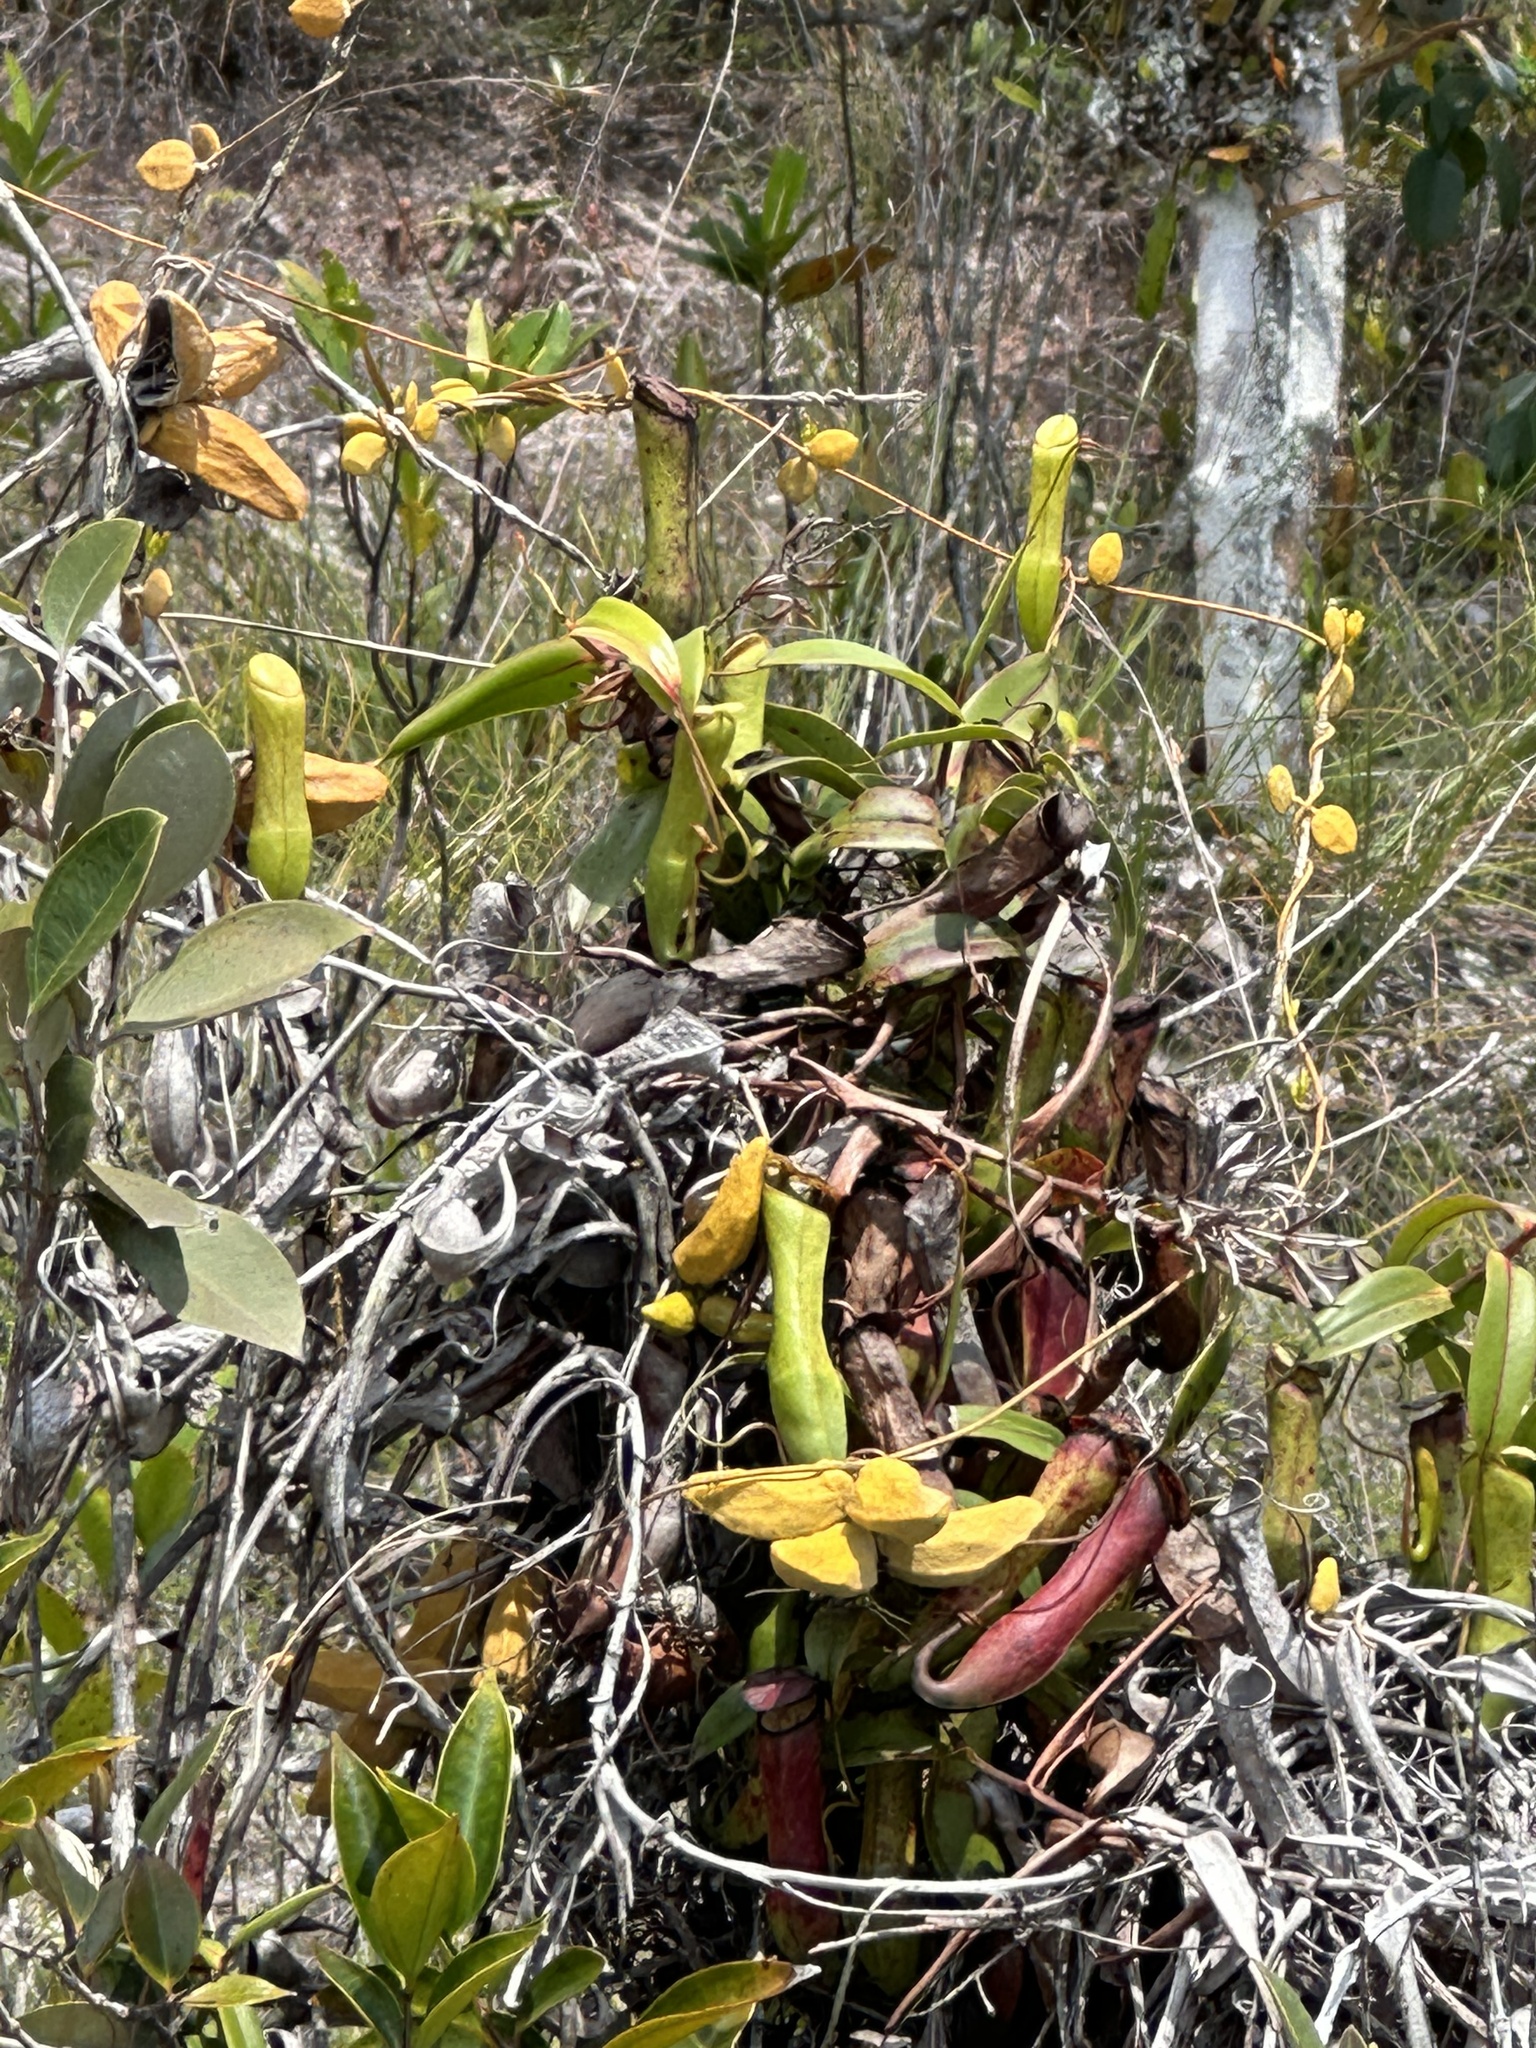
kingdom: Plantae
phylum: Tracheophyta
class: Magnoliopsida
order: Caryophyllales
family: Nepenthaceae
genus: Nepenthes
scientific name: Nepenthes gracilis
